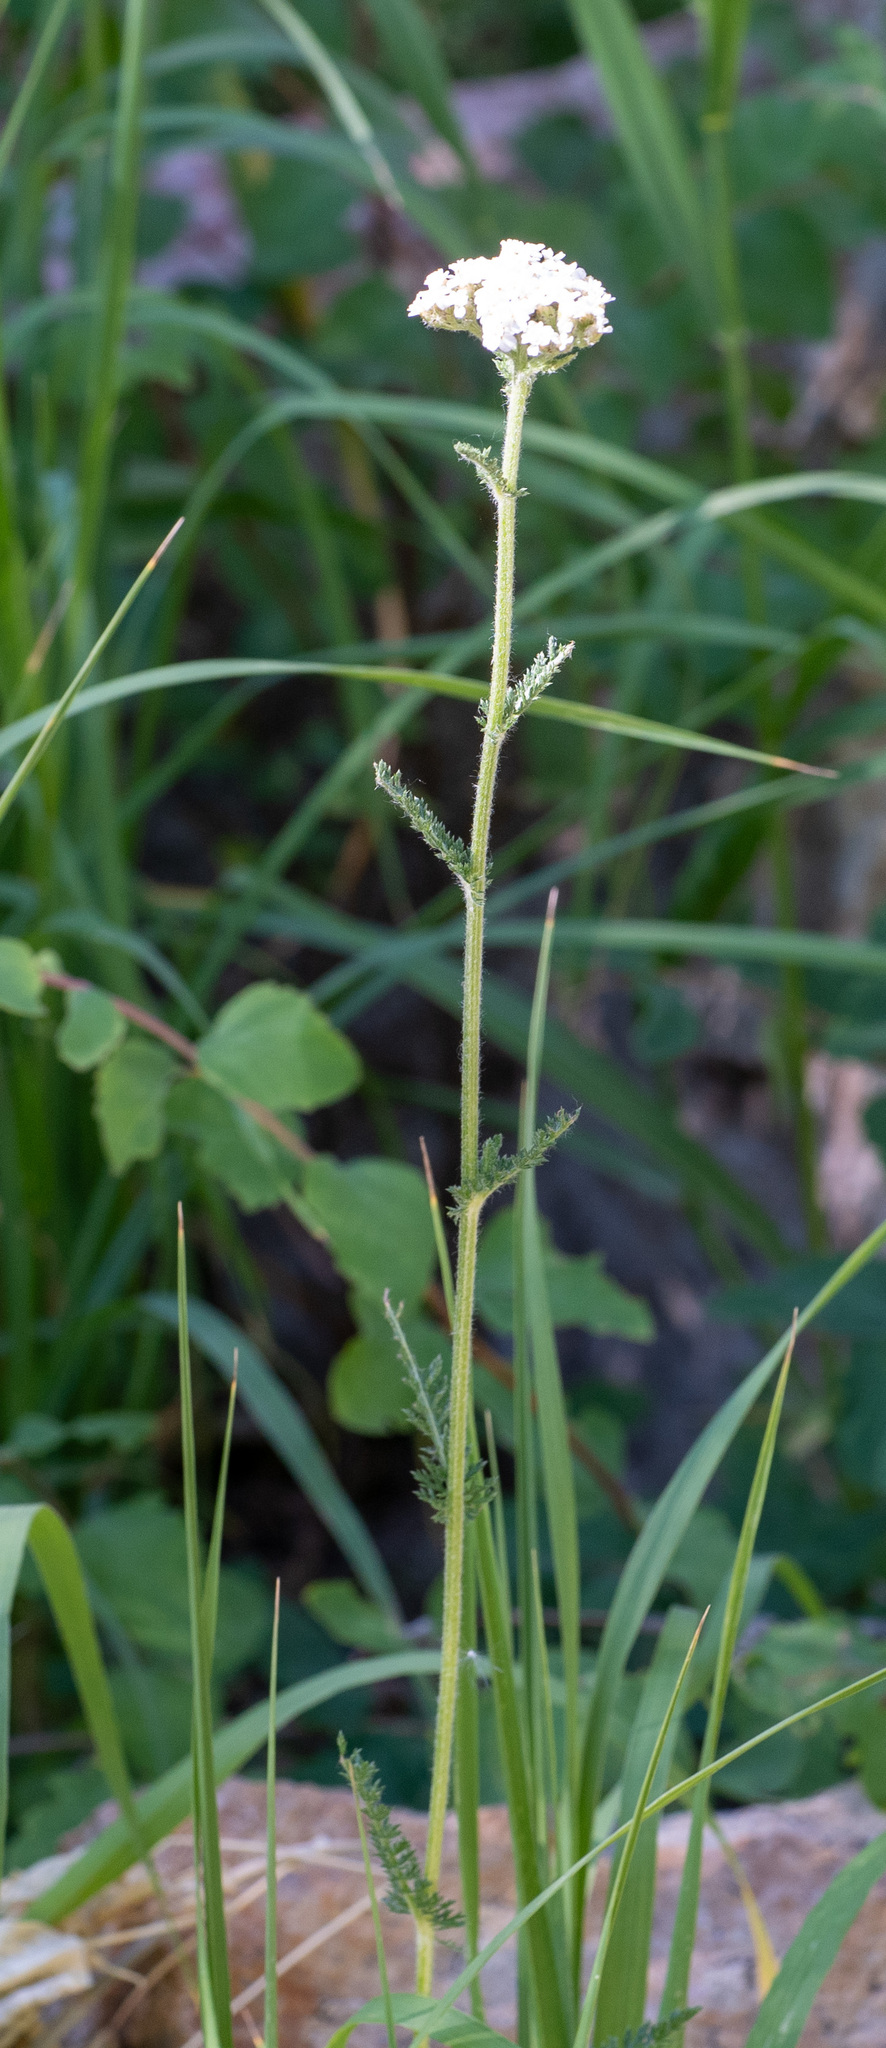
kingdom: Plantae
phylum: Tracheophyta
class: Magnoliopsida
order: Asterales
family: Asteraceae
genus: Achillea
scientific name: Achillea millefolium
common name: Yarrow
